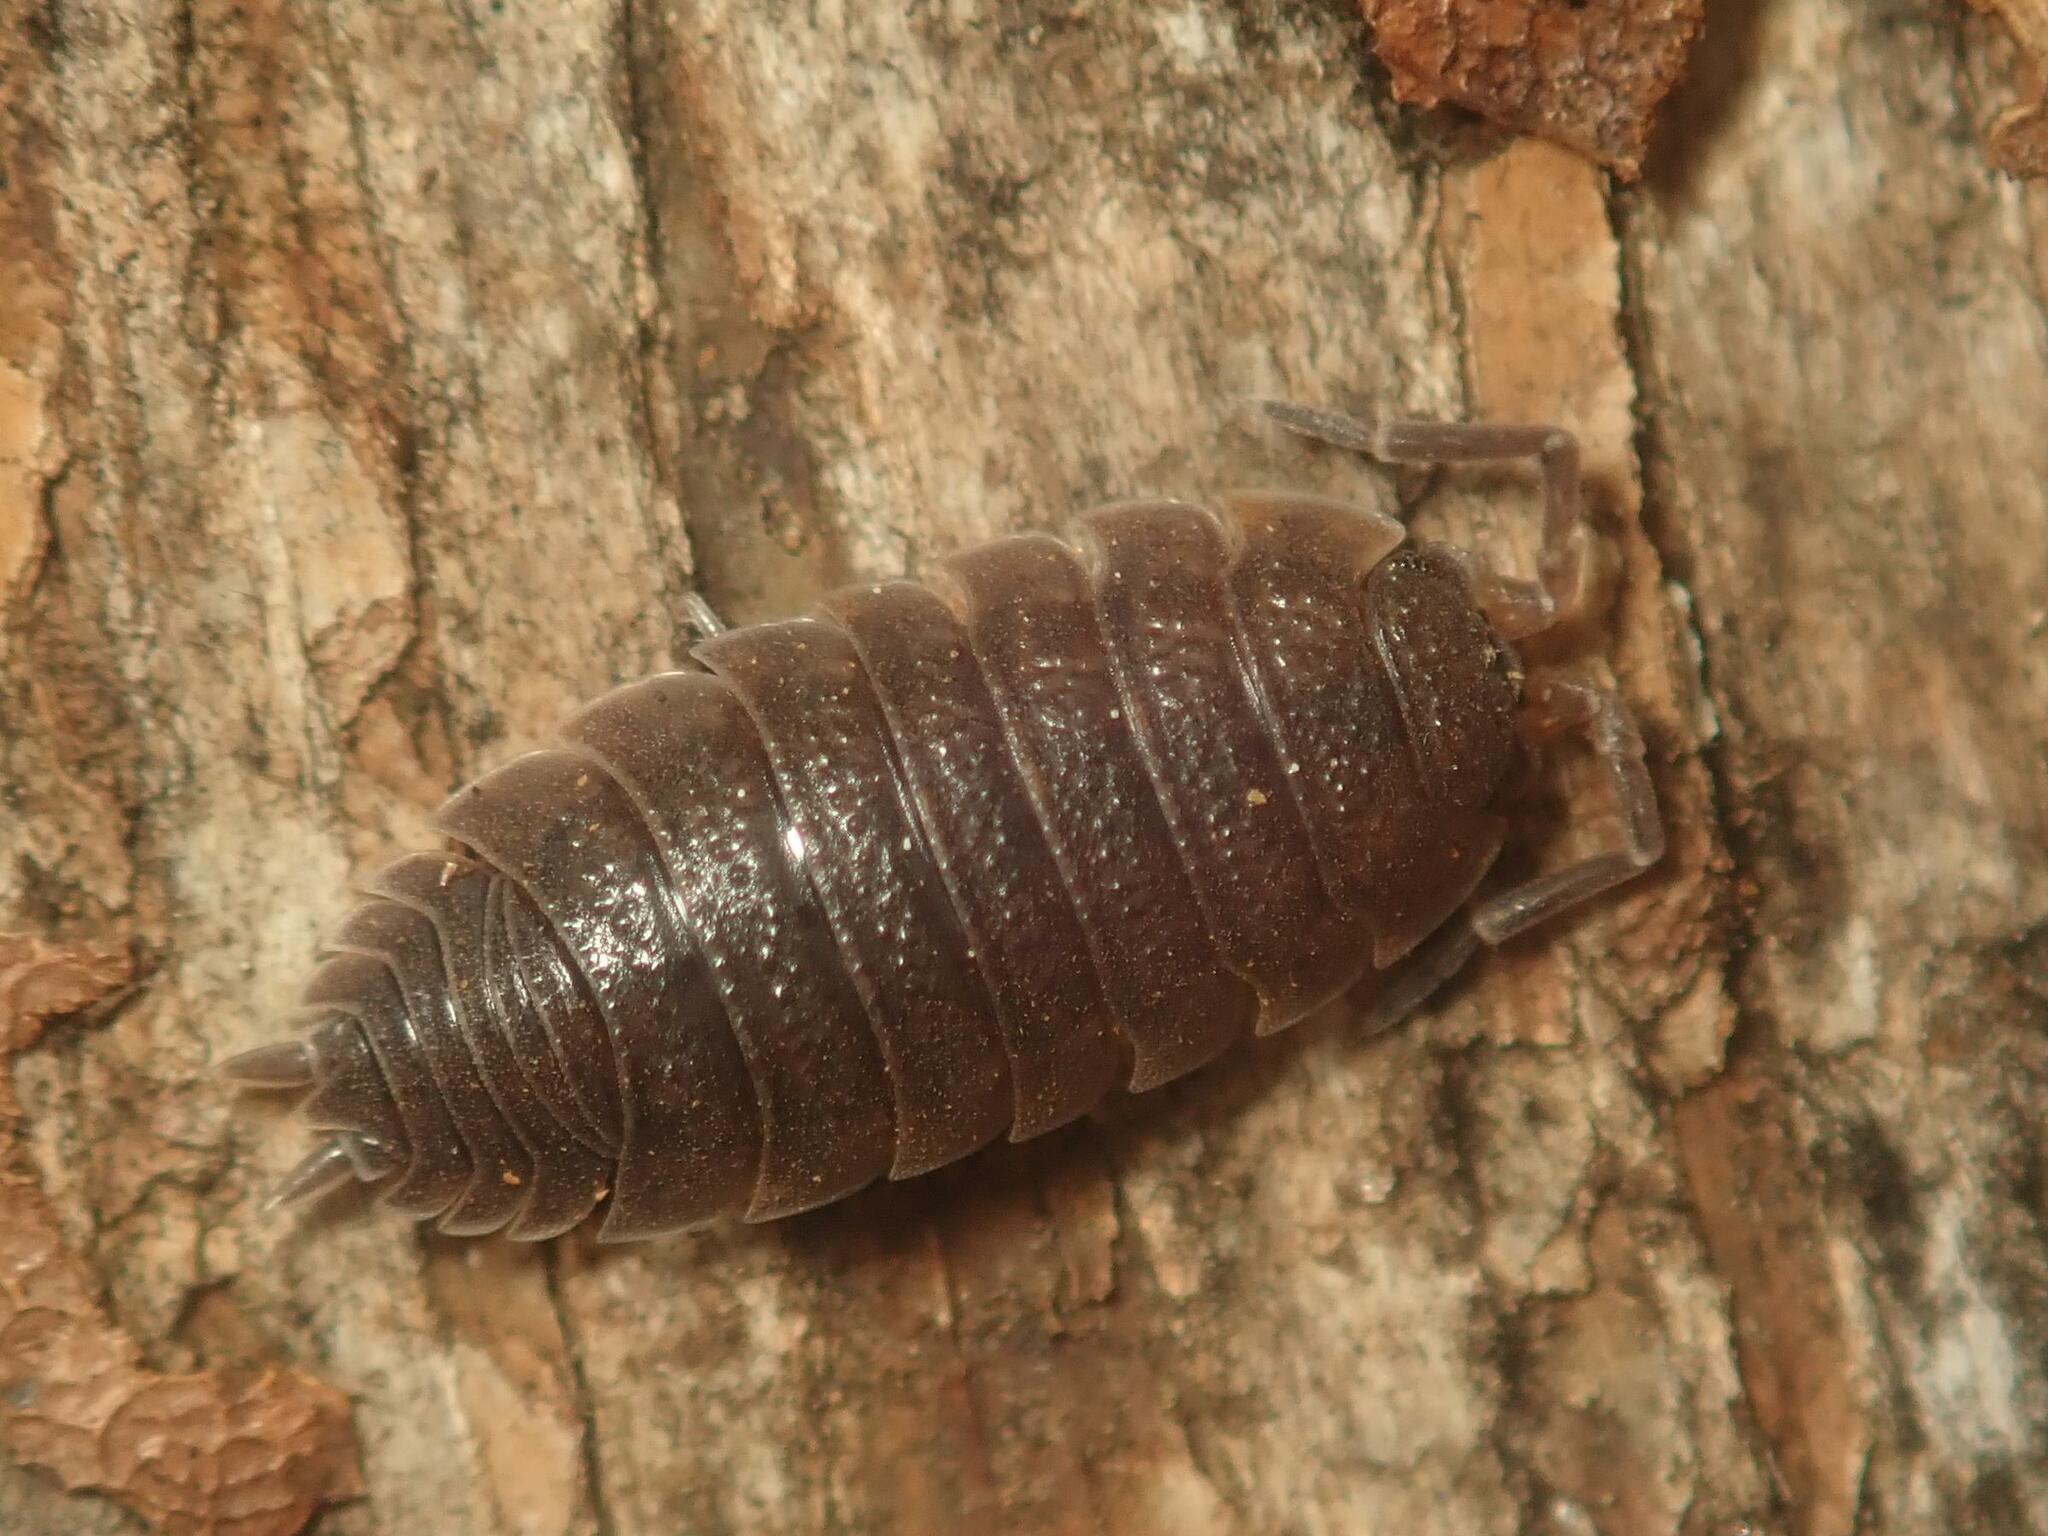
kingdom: Animalia
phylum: Arthropoda
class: Malacostraca
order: Isopoda
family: Porcellionidae
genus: Porcellio
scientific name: Porcellio scaber
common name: Common rough woodlouse
